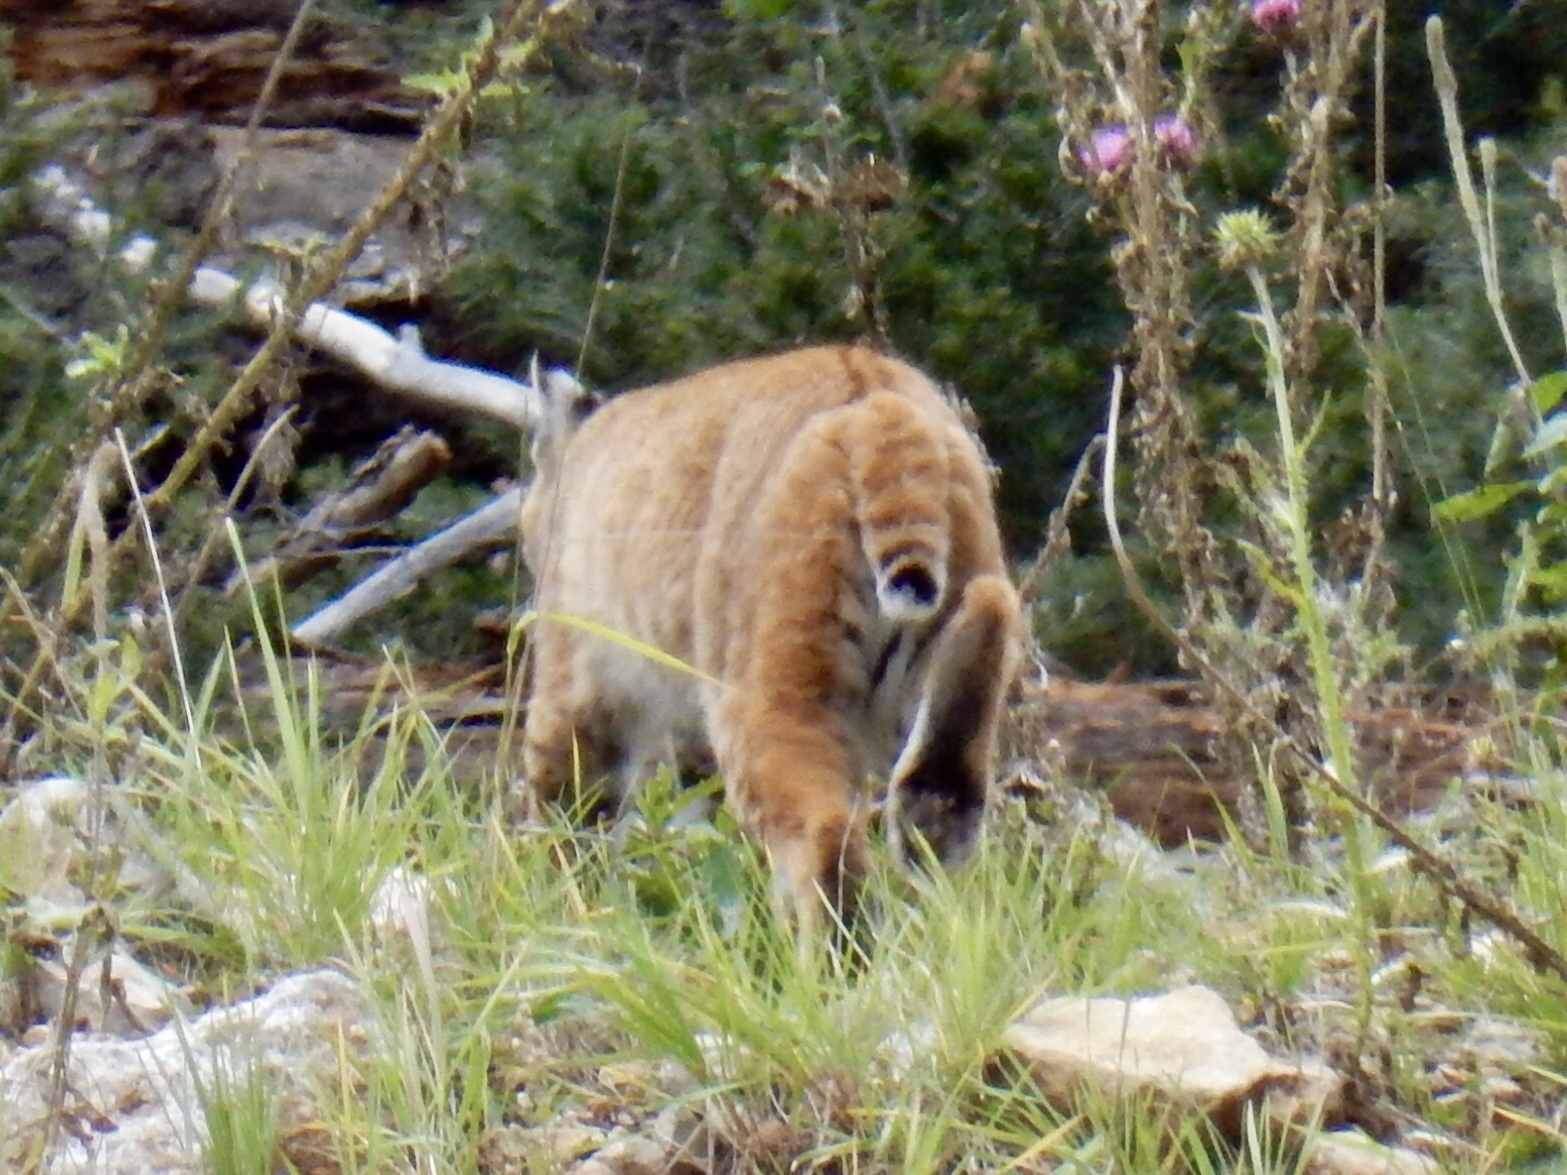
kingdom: Animalia
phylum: Chordata
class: Mammalia
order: Carnivora
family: Felidae
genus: Lynx
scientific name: Lynx rufus
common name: Bobcat
